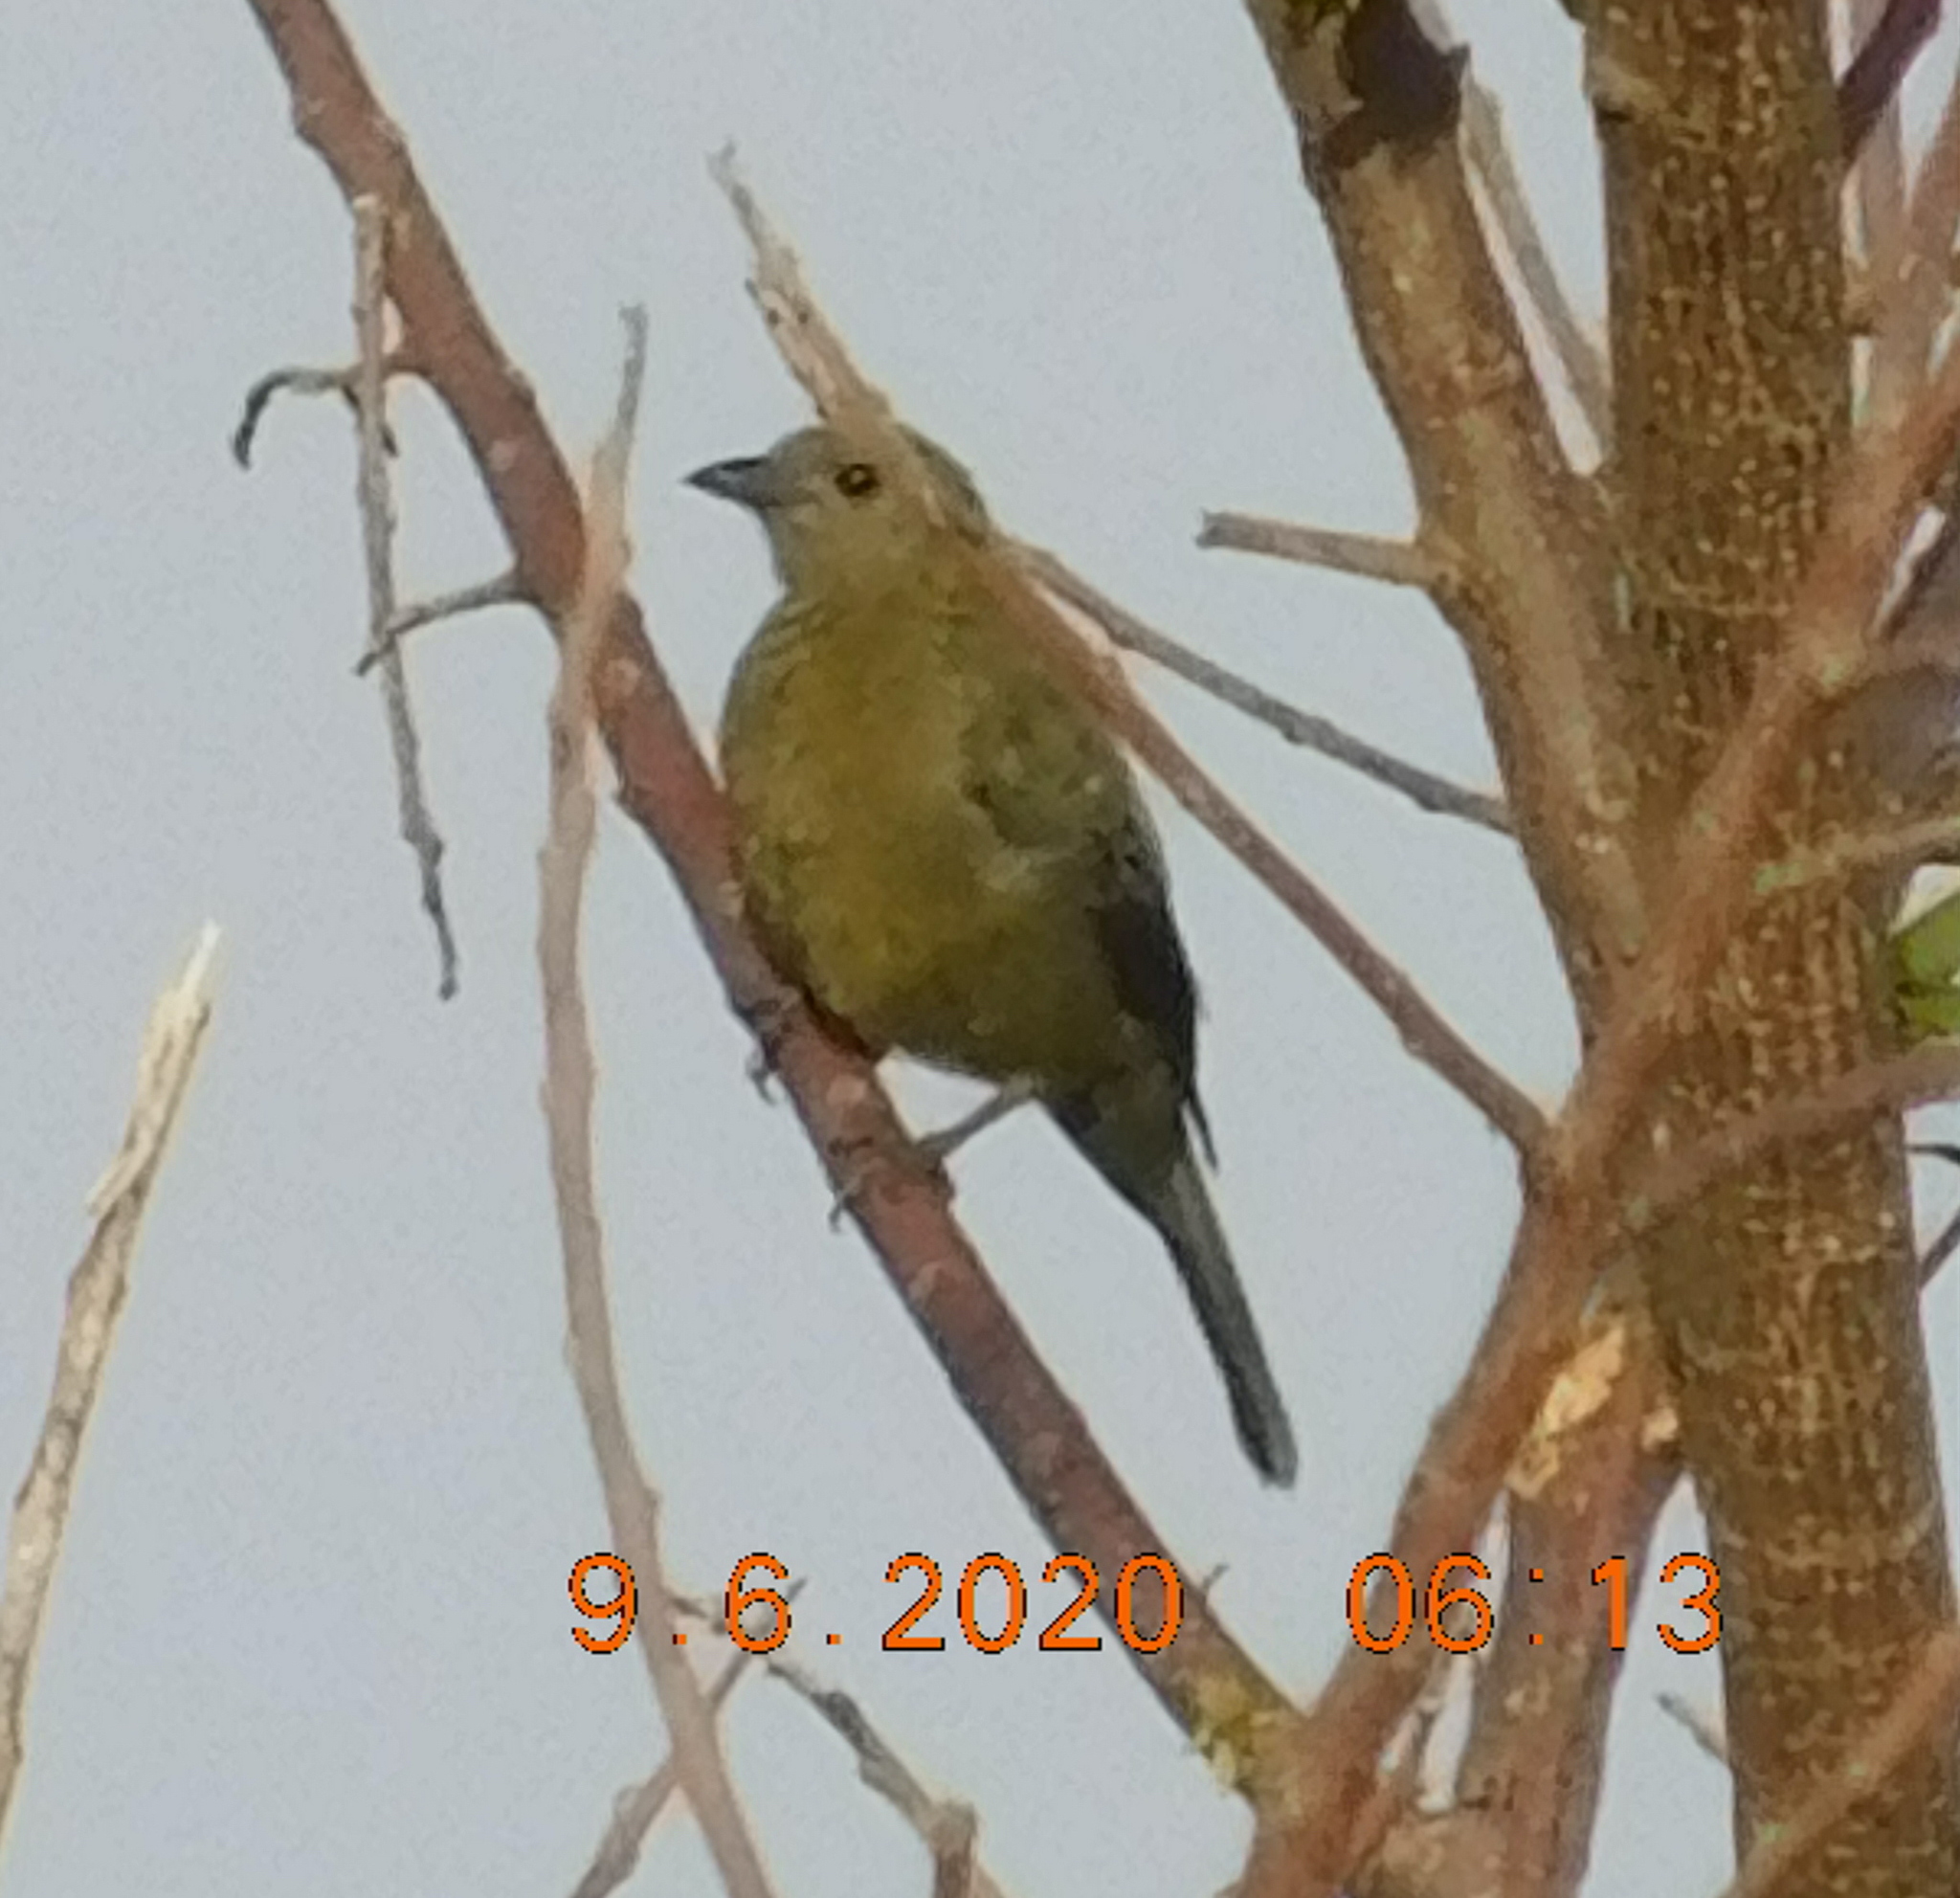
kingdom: Animalia
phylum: Chordata
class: Aves
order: Passeriformes
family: Thraupidae
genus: Thraupis
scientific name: Thraupis palmarum
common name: Palm tanager
